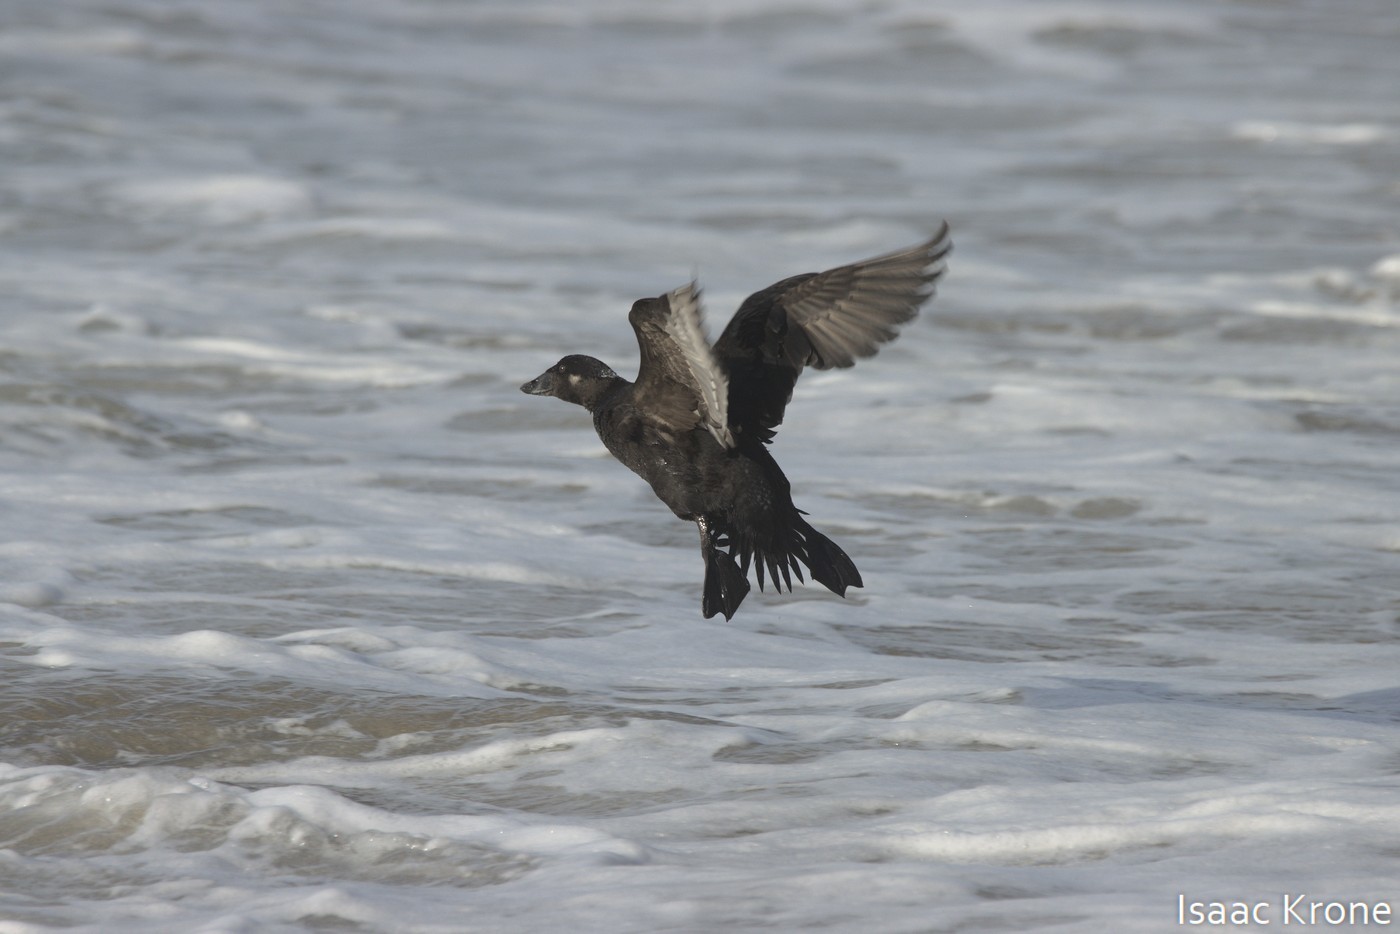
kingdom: Animalia
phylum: Chordata
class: Aves
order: Anseriformes
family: Anatidae
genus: Melanitta
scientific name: Melanitta perspicillata
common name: Surf scoter
